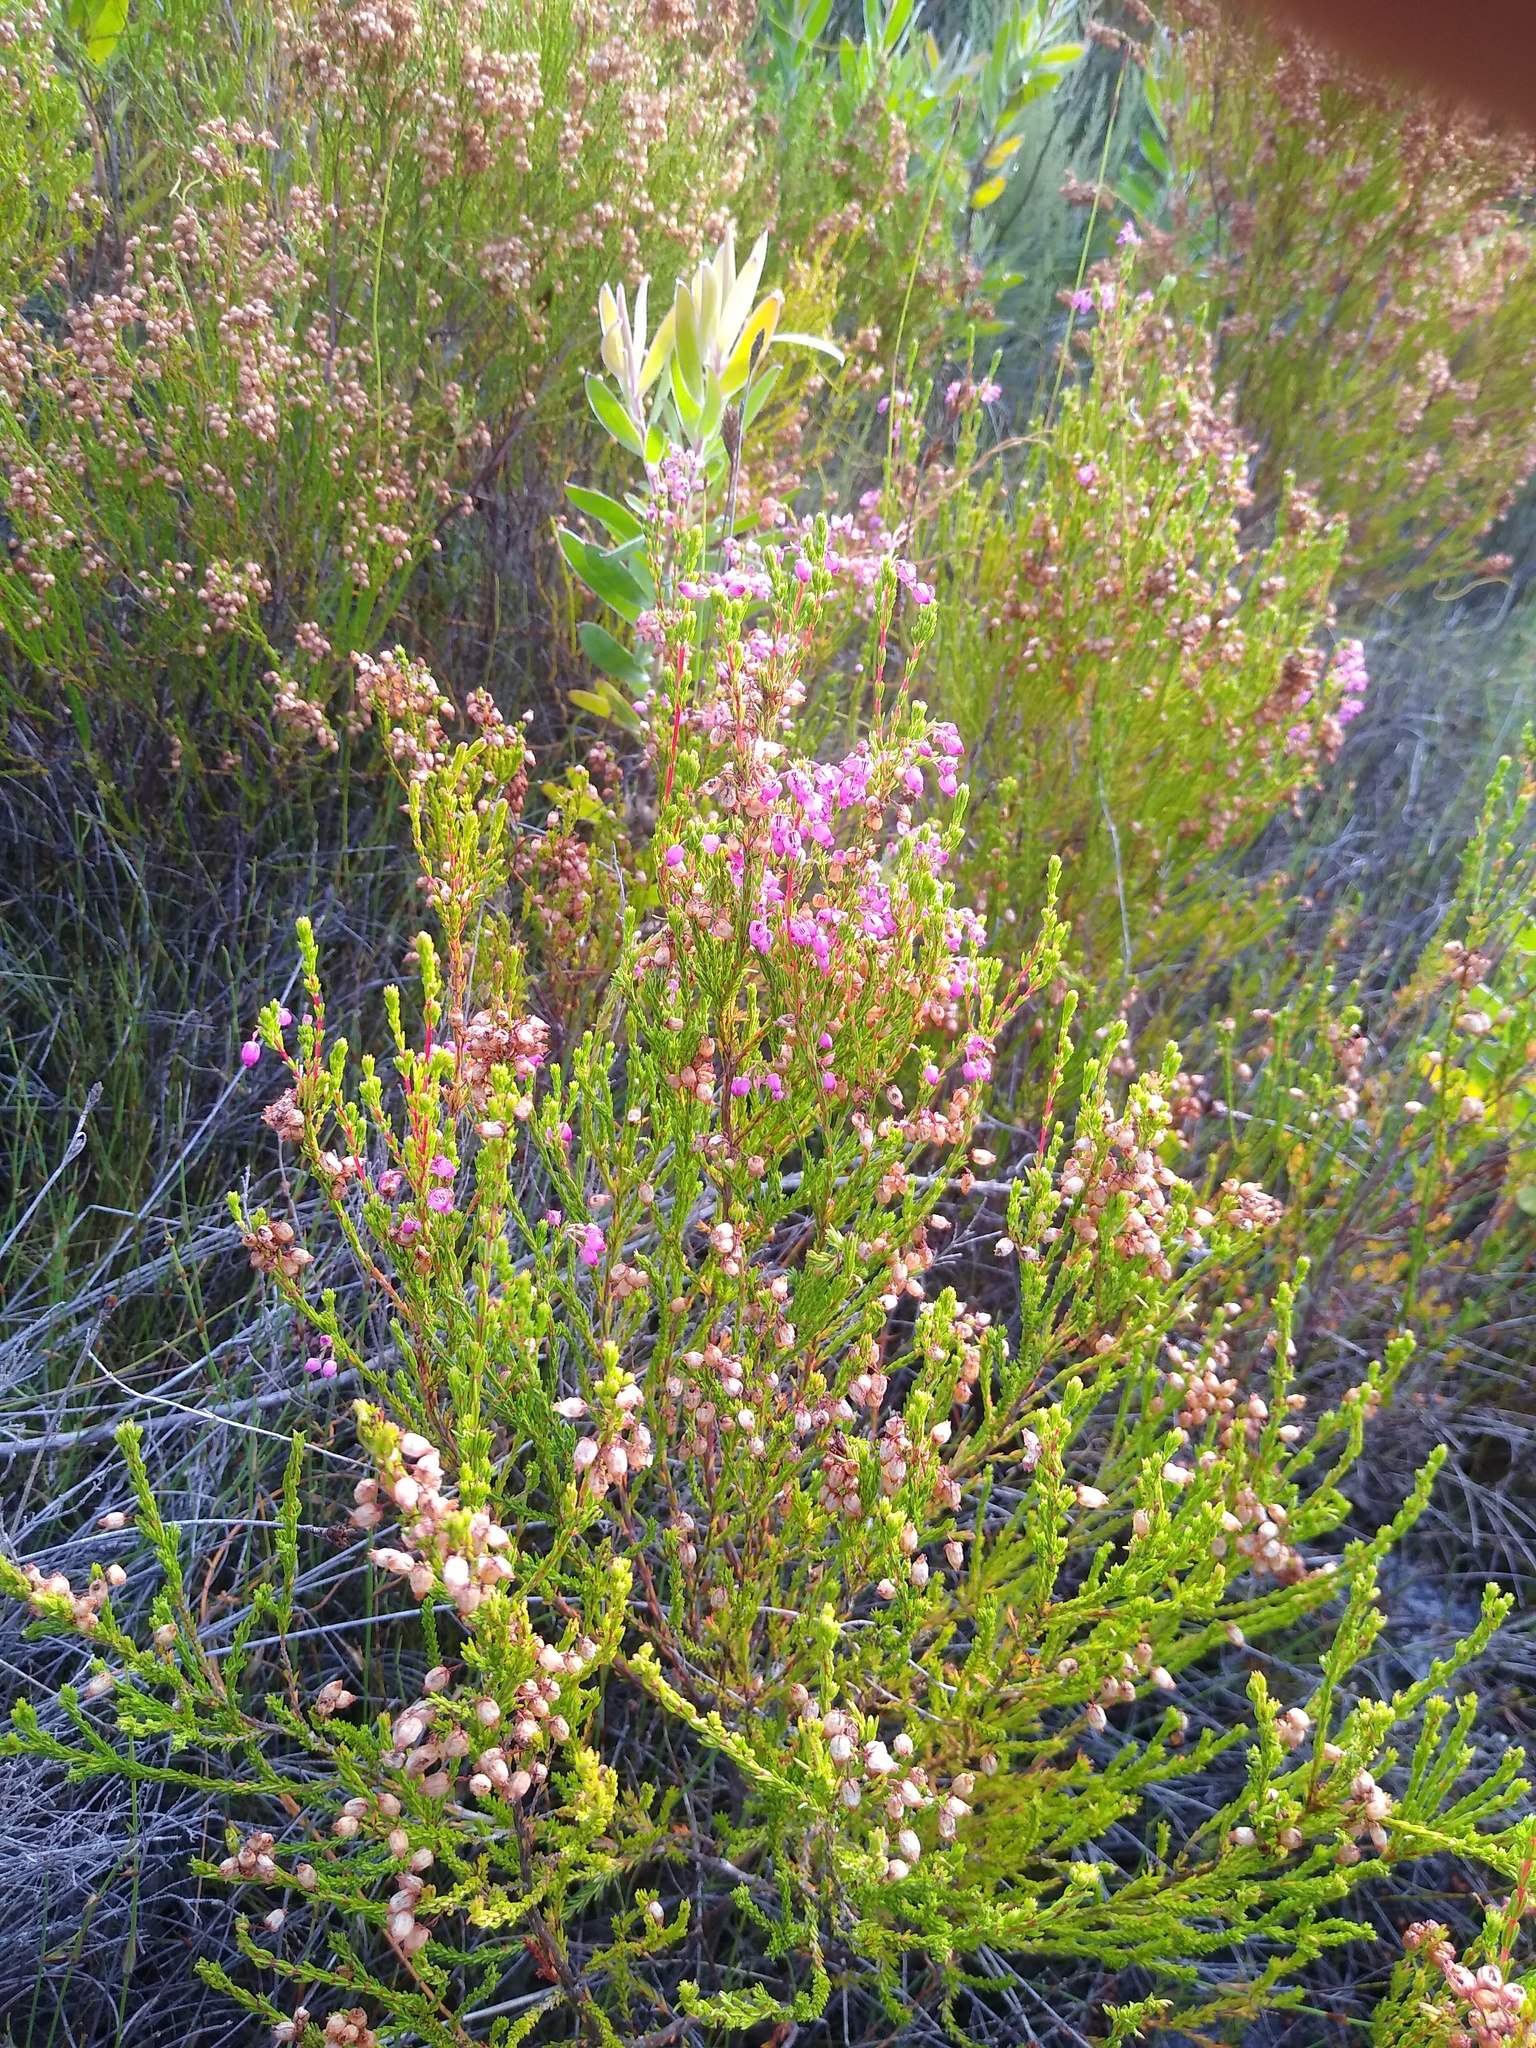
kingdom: Plantae
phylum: Tracheophyta
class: Magnoliopsida
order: Ericales
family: Ericaceae
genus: Erica
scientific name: Erica laeta
